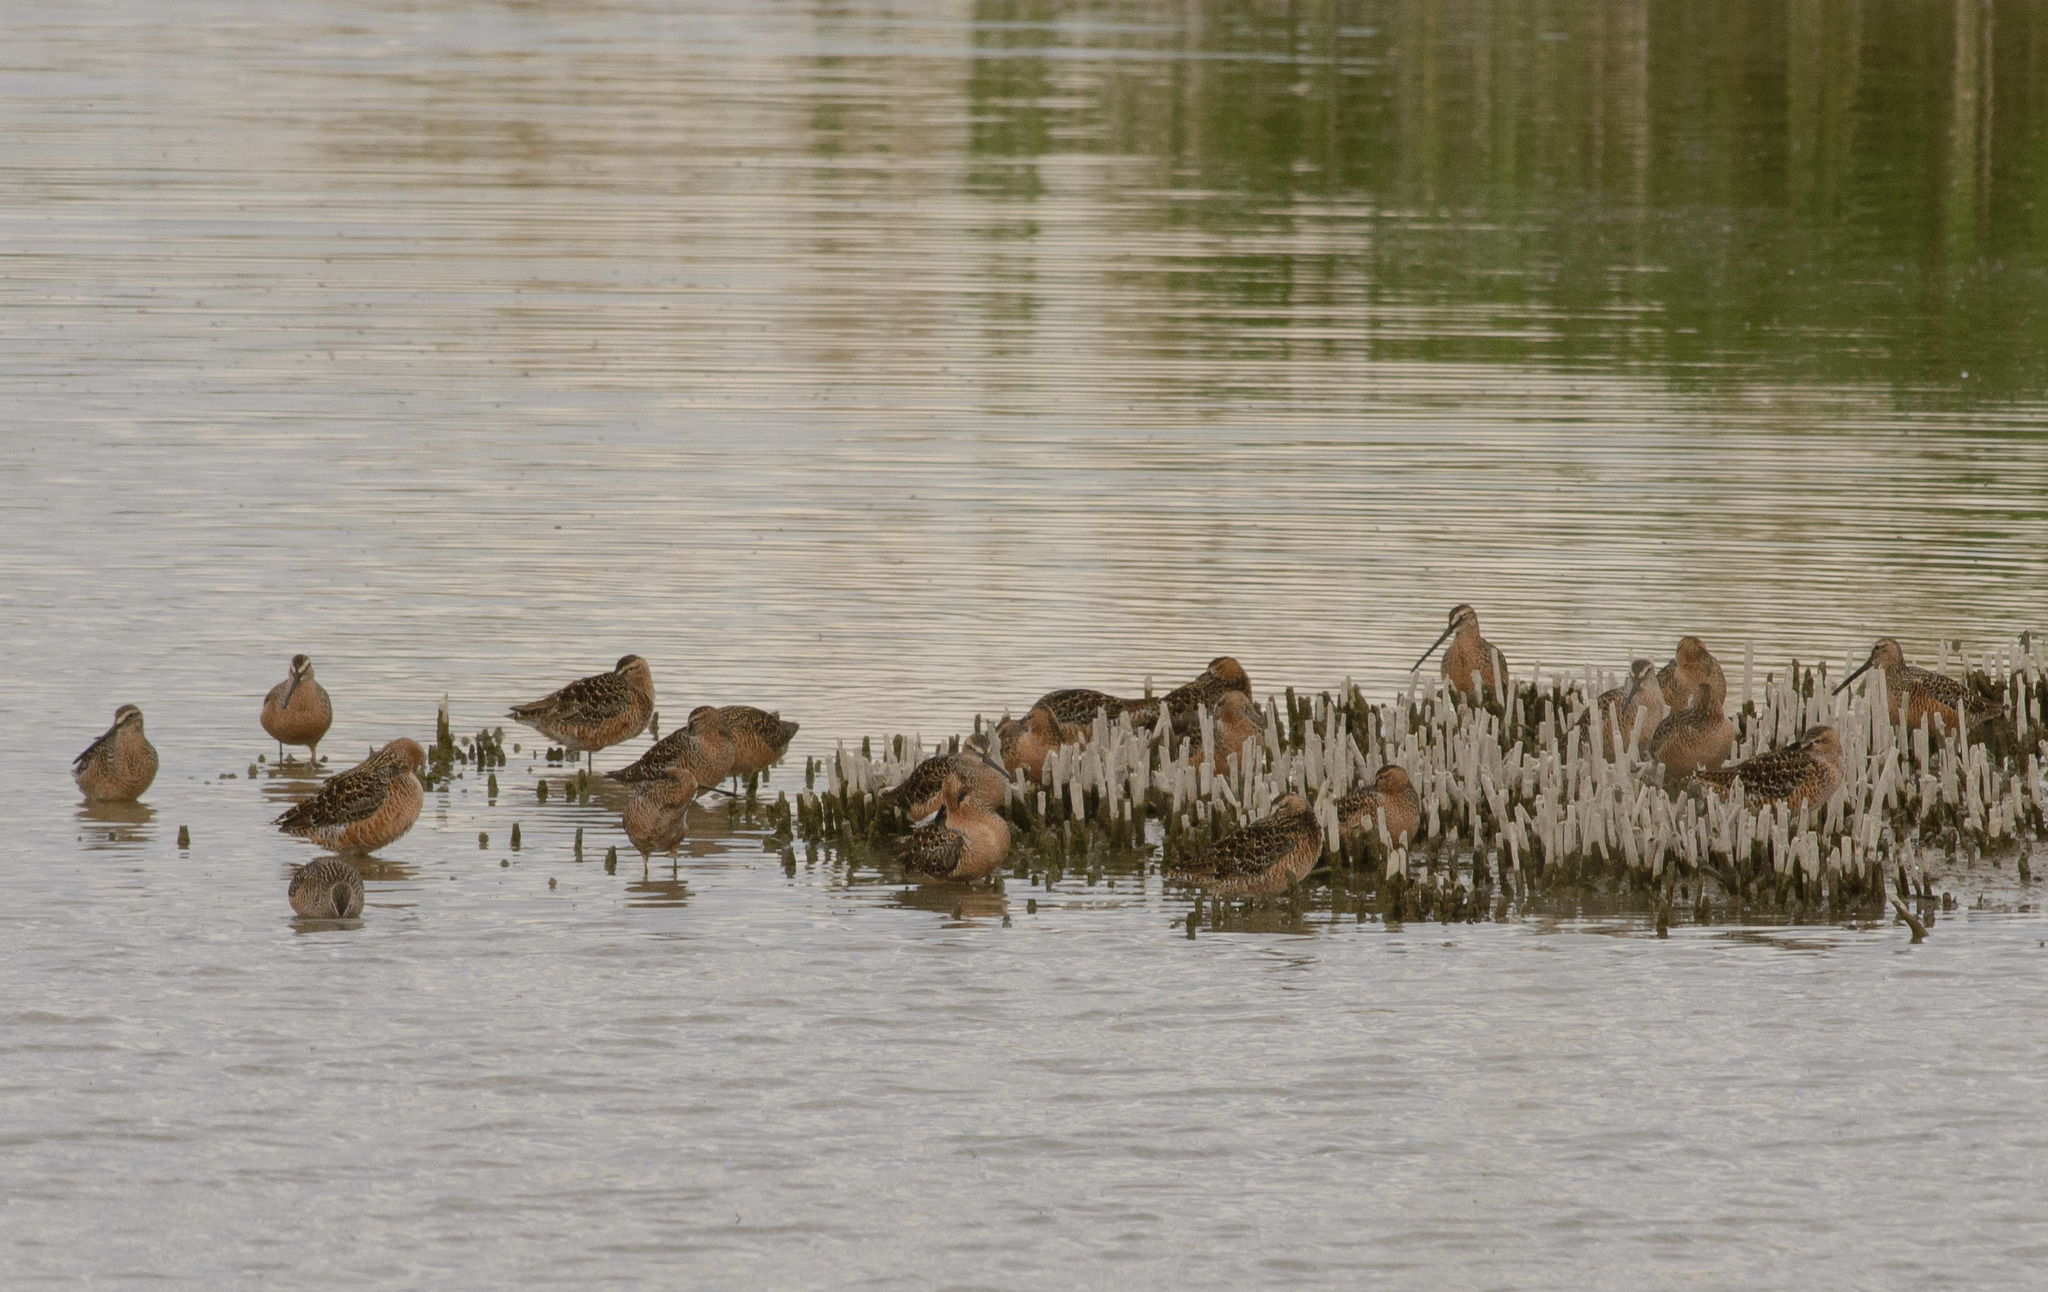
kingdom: Animalia
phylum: Chordata
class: Aves
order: Charadriiformes
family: Scolopacidae
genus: Limnodromus
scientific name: Limnodromus scolopaceus
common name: Long-billed dowitcher
